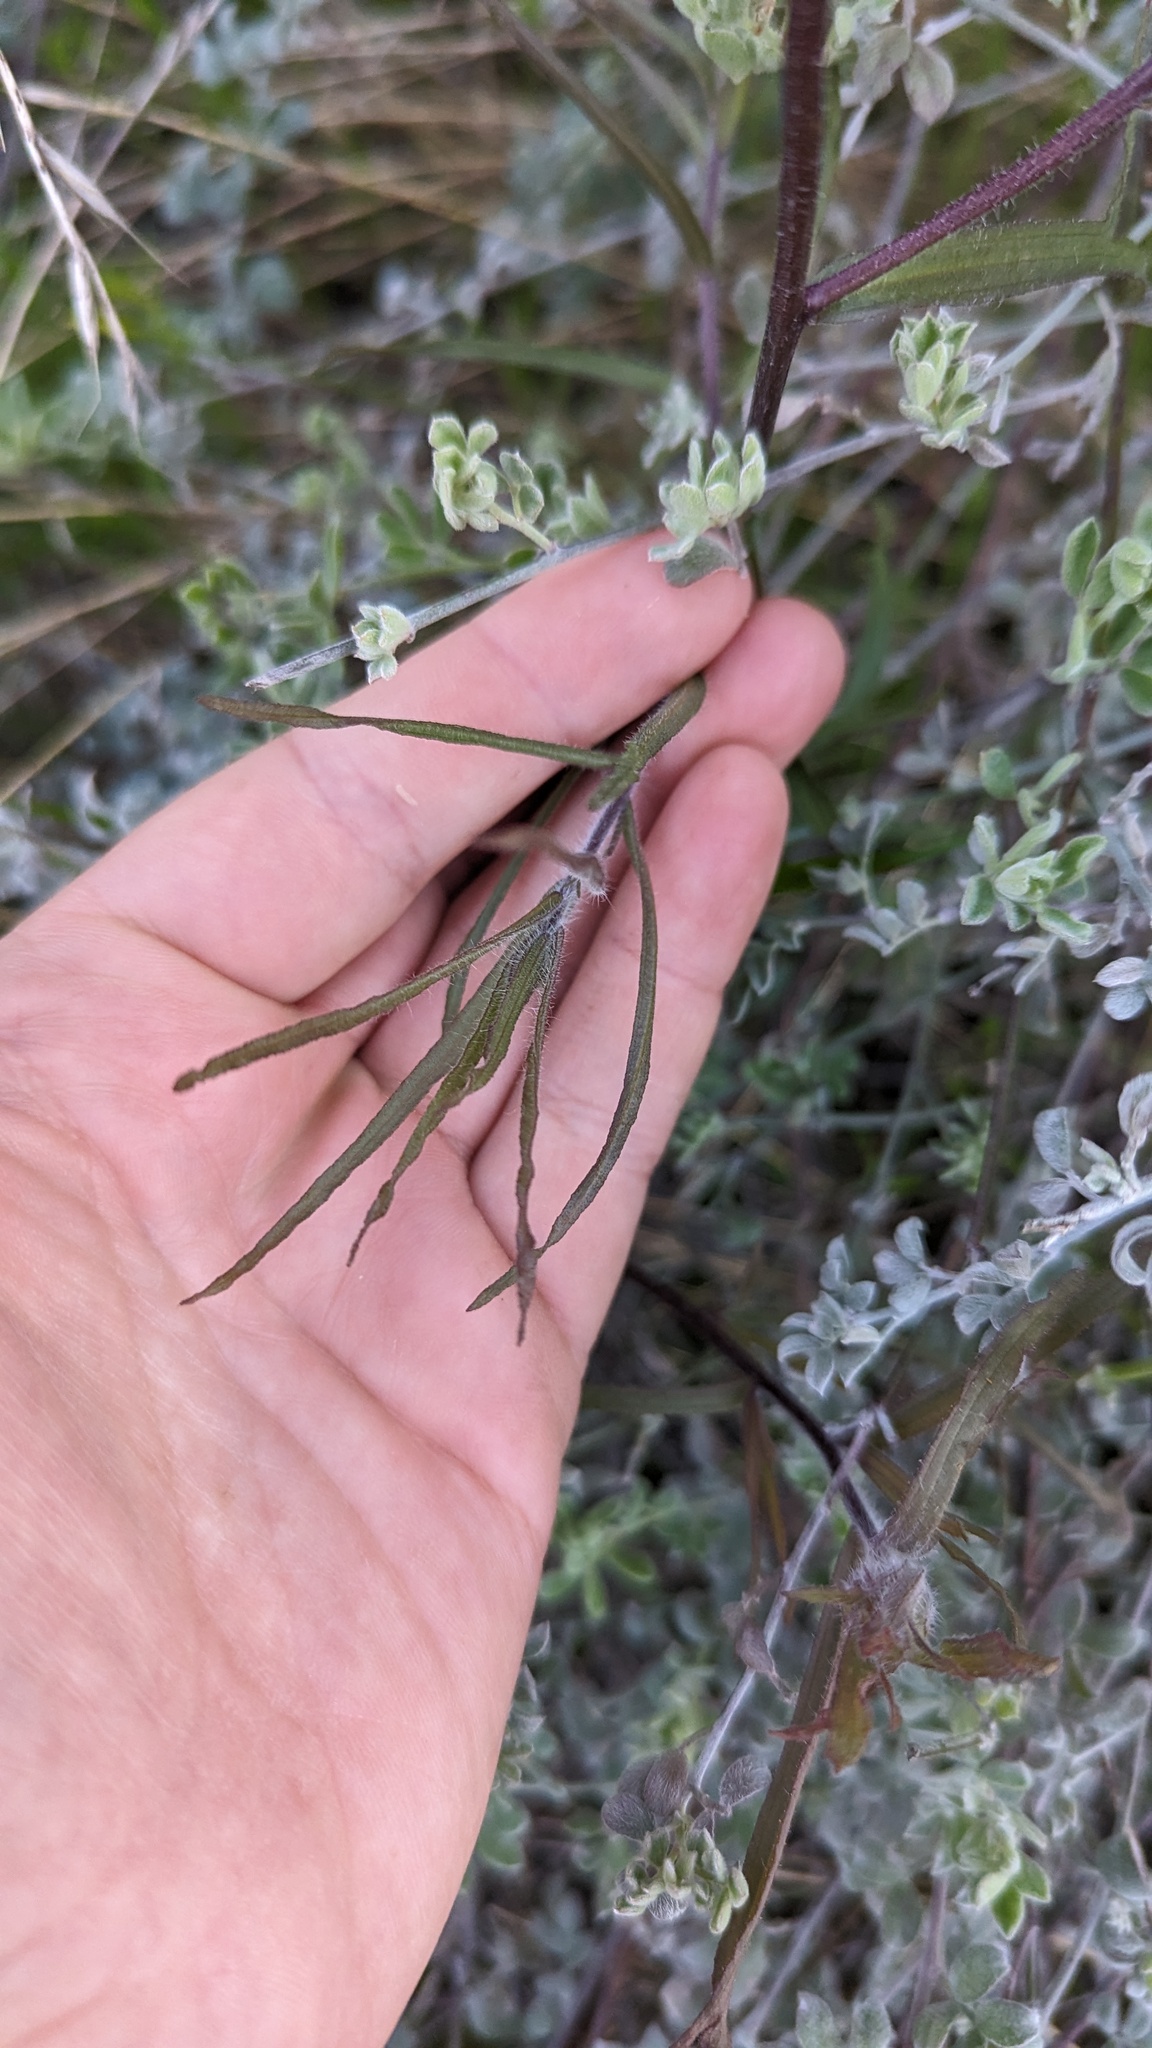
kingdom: Plantae
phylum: Tracheophyta
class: Magnoliopsida
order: Lamiales
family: Orobanchaceae
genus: Castilleja
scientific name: Castilleja affinis
